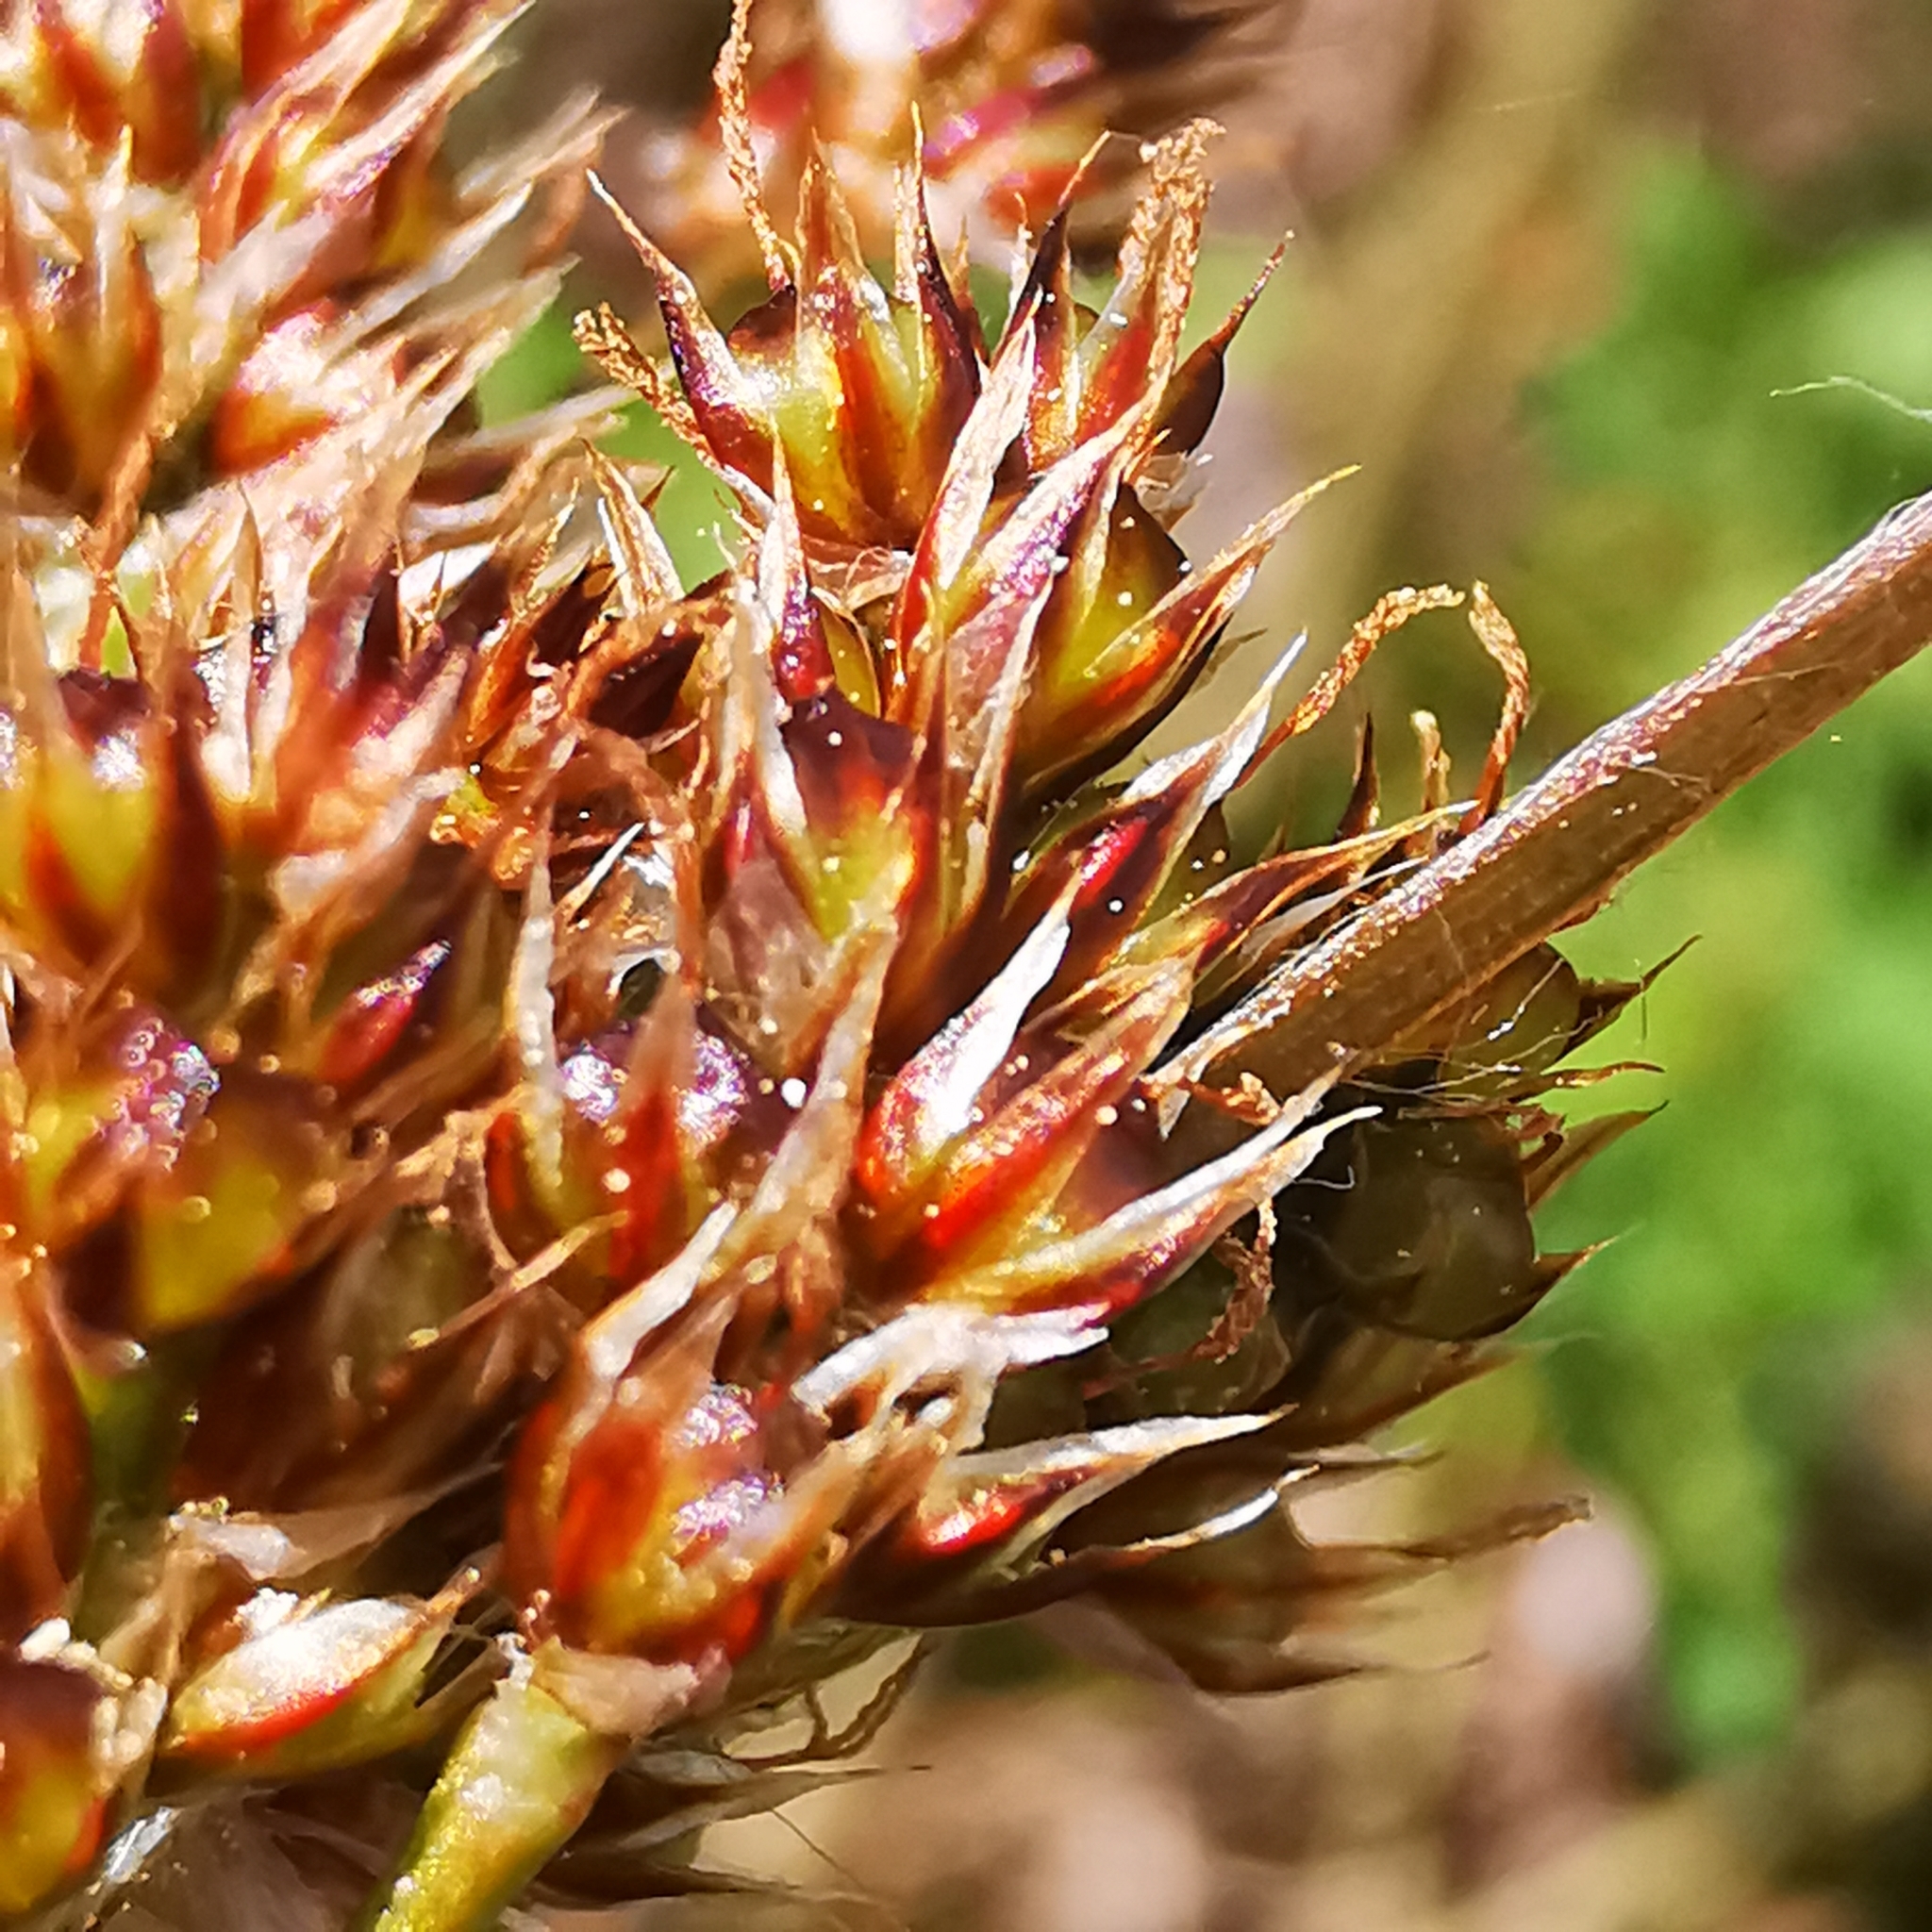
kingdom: Plantae
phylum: Tracheophyta
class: Liliopsida
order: Poales
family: Juncaceae
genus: Luzula
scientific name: Luzula pallescens
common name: Fen wood-rush
